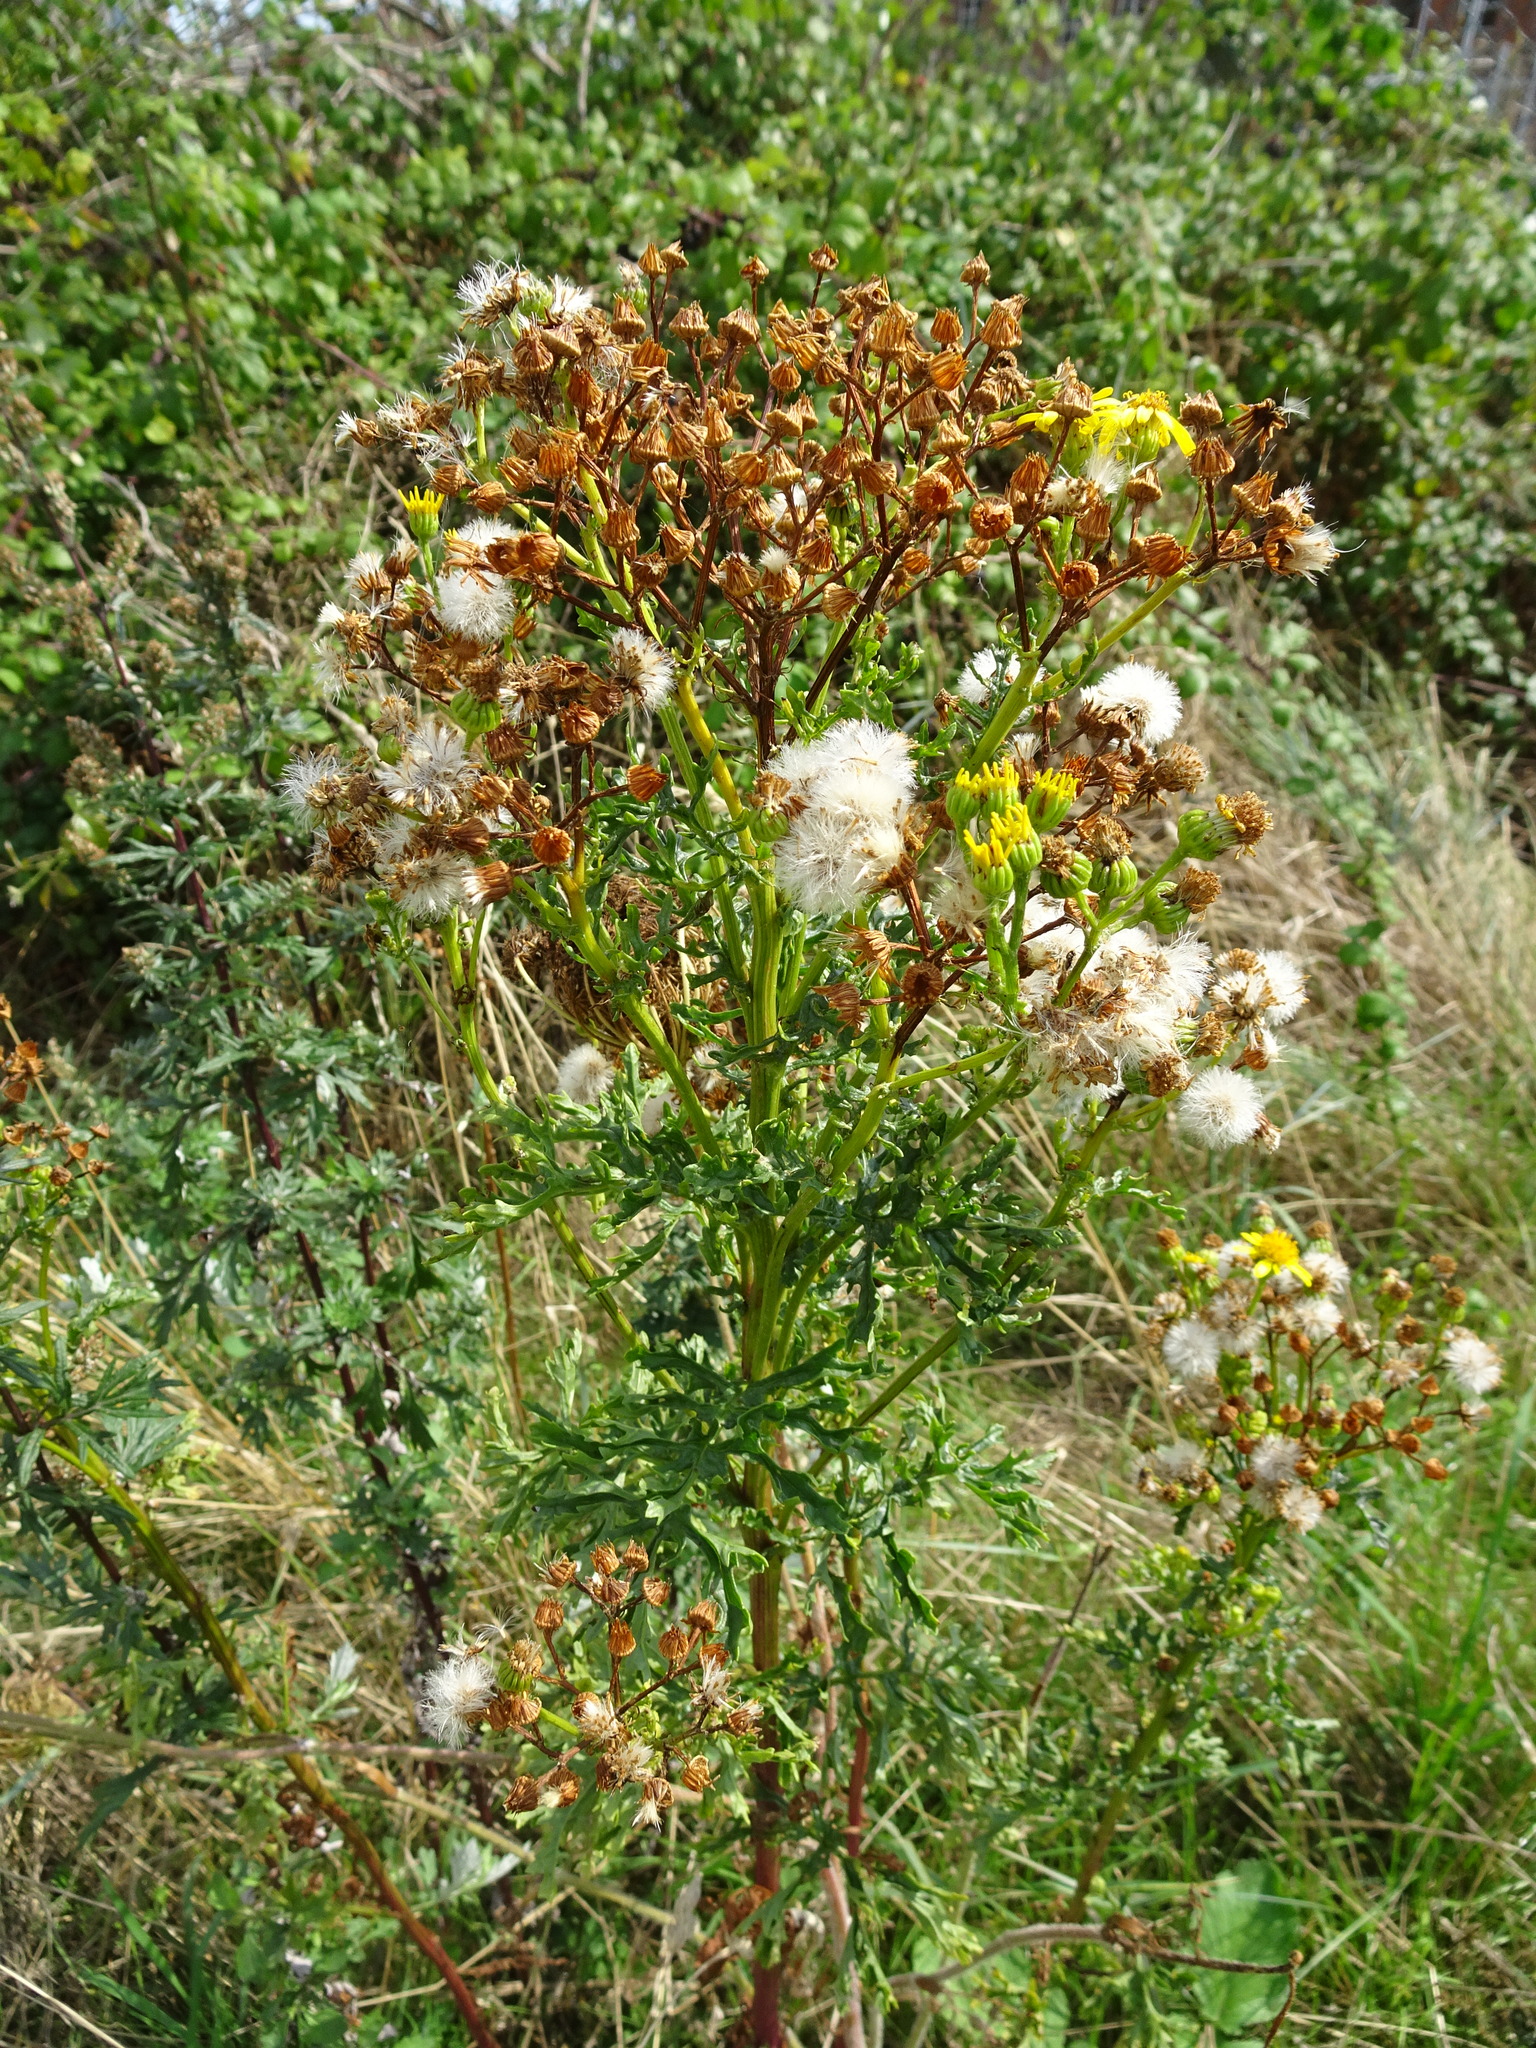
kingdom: Plantae
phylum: Tracheophyta
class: Magnoliopsida
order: Asterales
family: Asteraceae
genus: Jacobaea
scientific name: Jacobaea vulgaris
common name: Stinking willie
